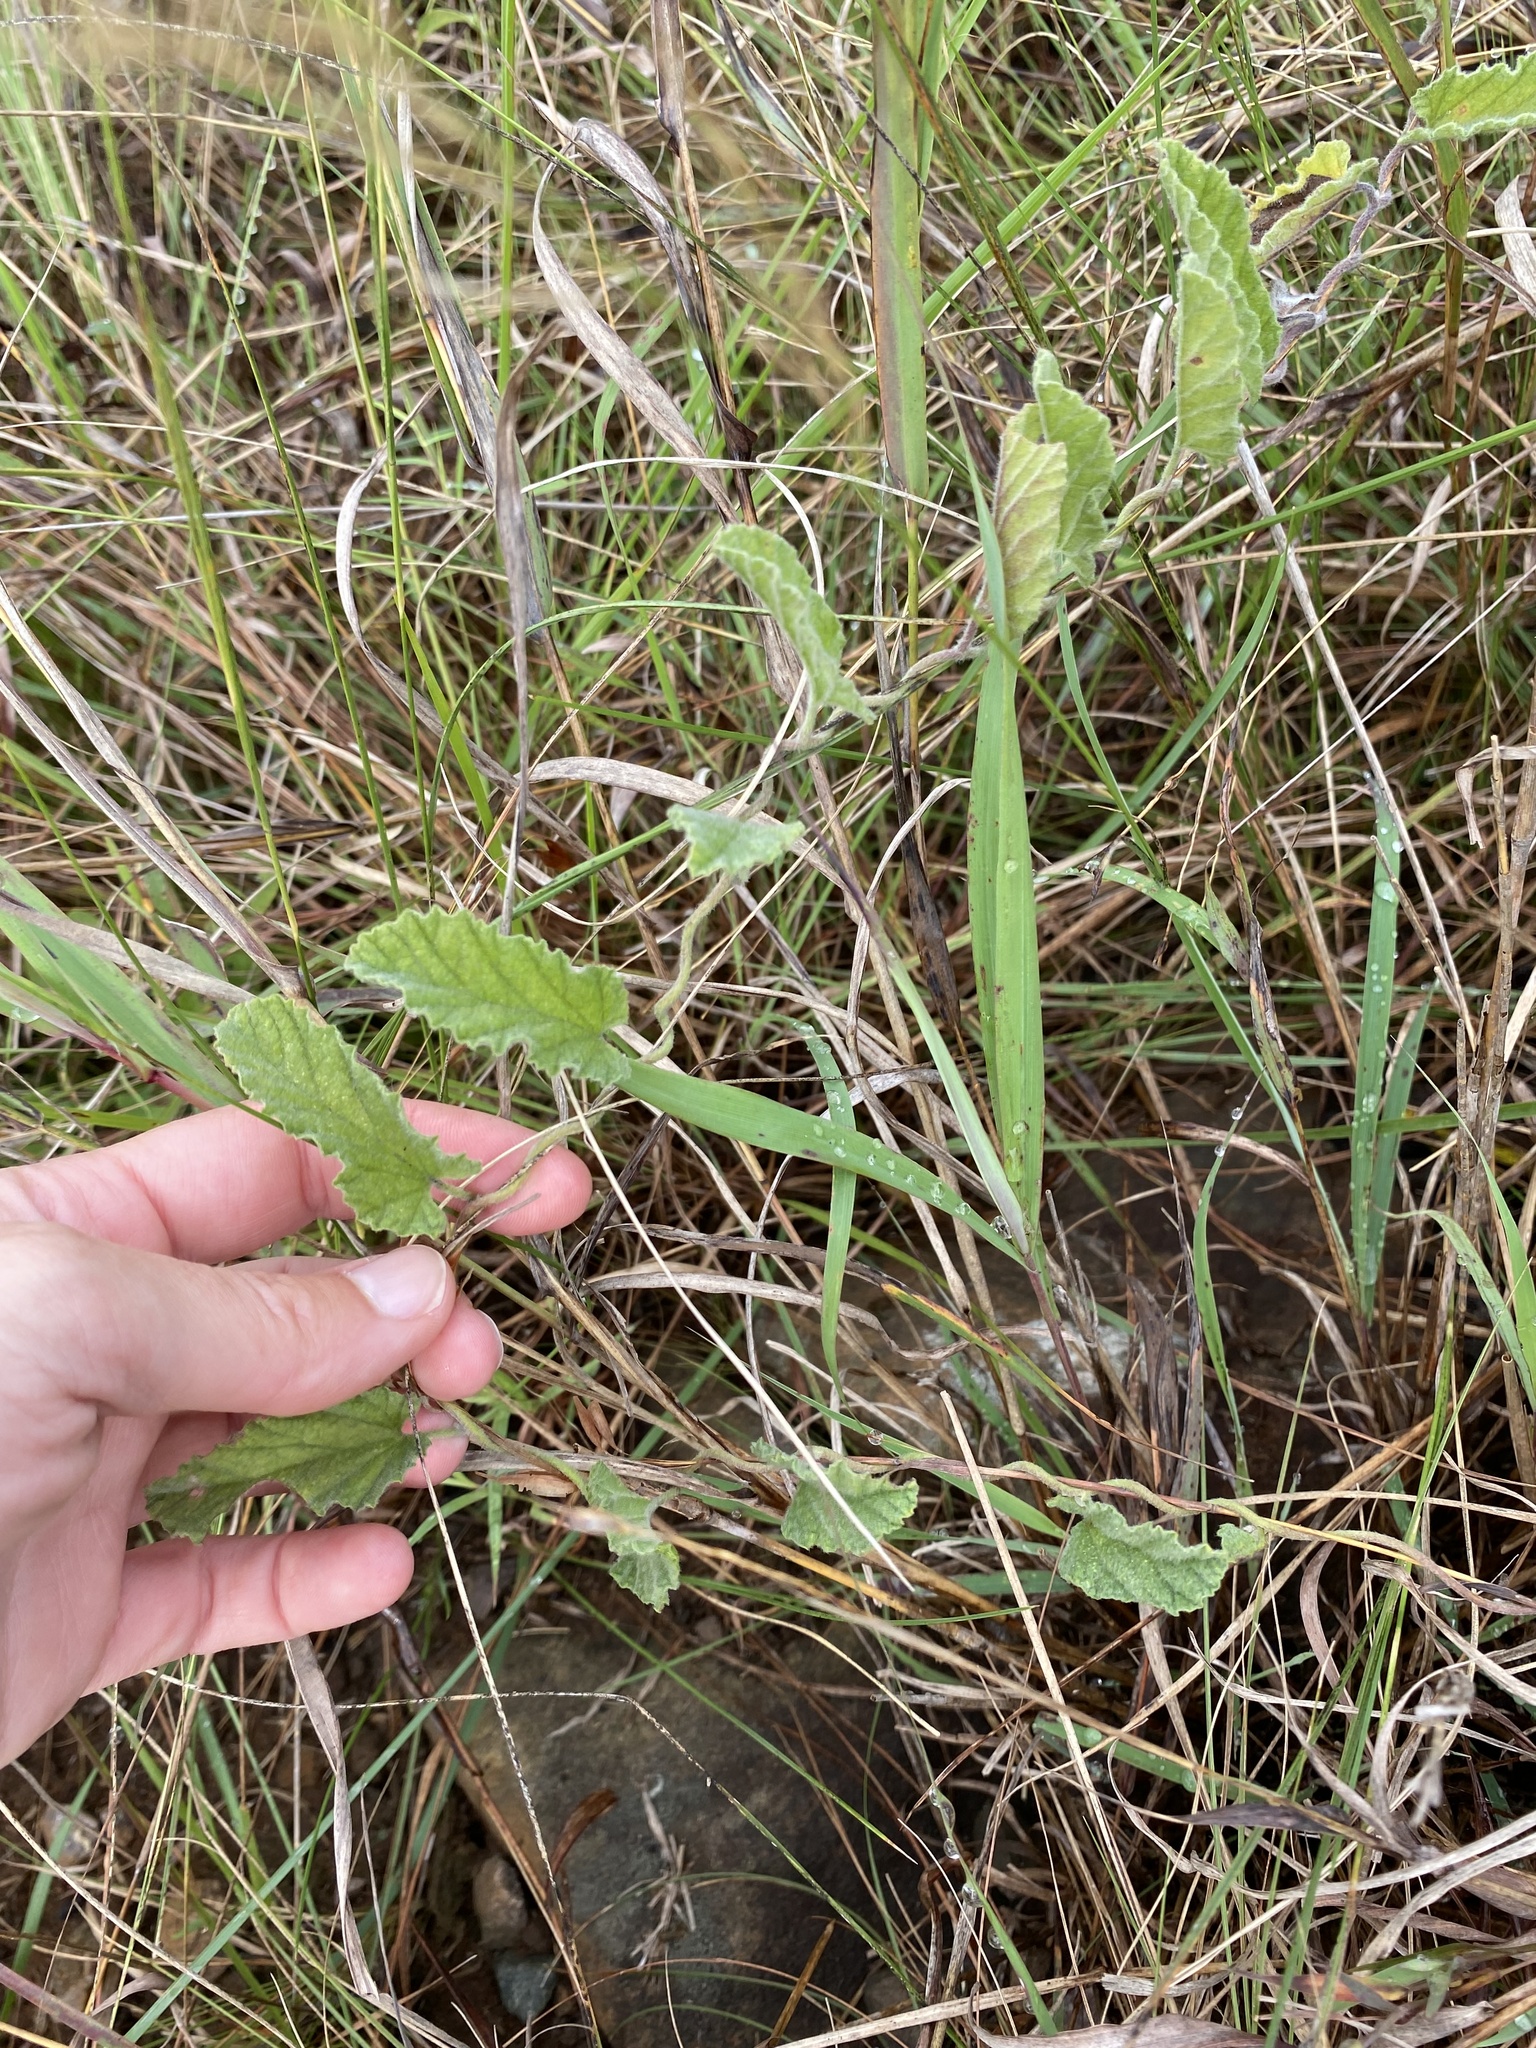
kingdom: Plantae
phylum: Tracheophyta
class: Magnoliopsida
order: Solanales
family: Convolvulaceae
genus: Convolvulus
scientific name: Convolvulus natalensis
